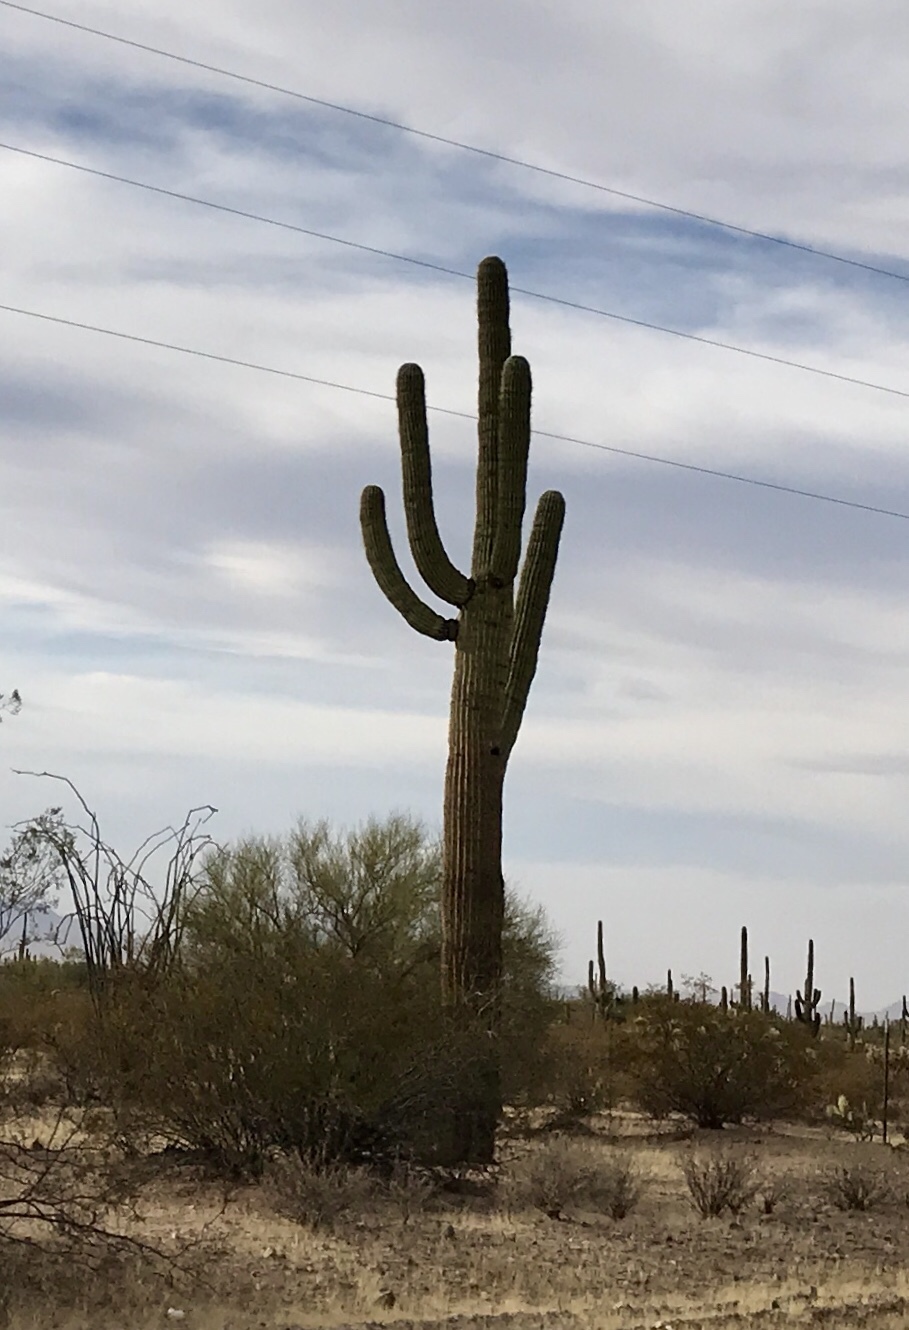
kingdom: Plantae
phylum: Tracheophyta
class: Magnoliopsida
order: Caryophyllales
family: Cactaceae
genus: Carnegiea
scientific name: Carnegiea gigantea
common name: Saguaro
